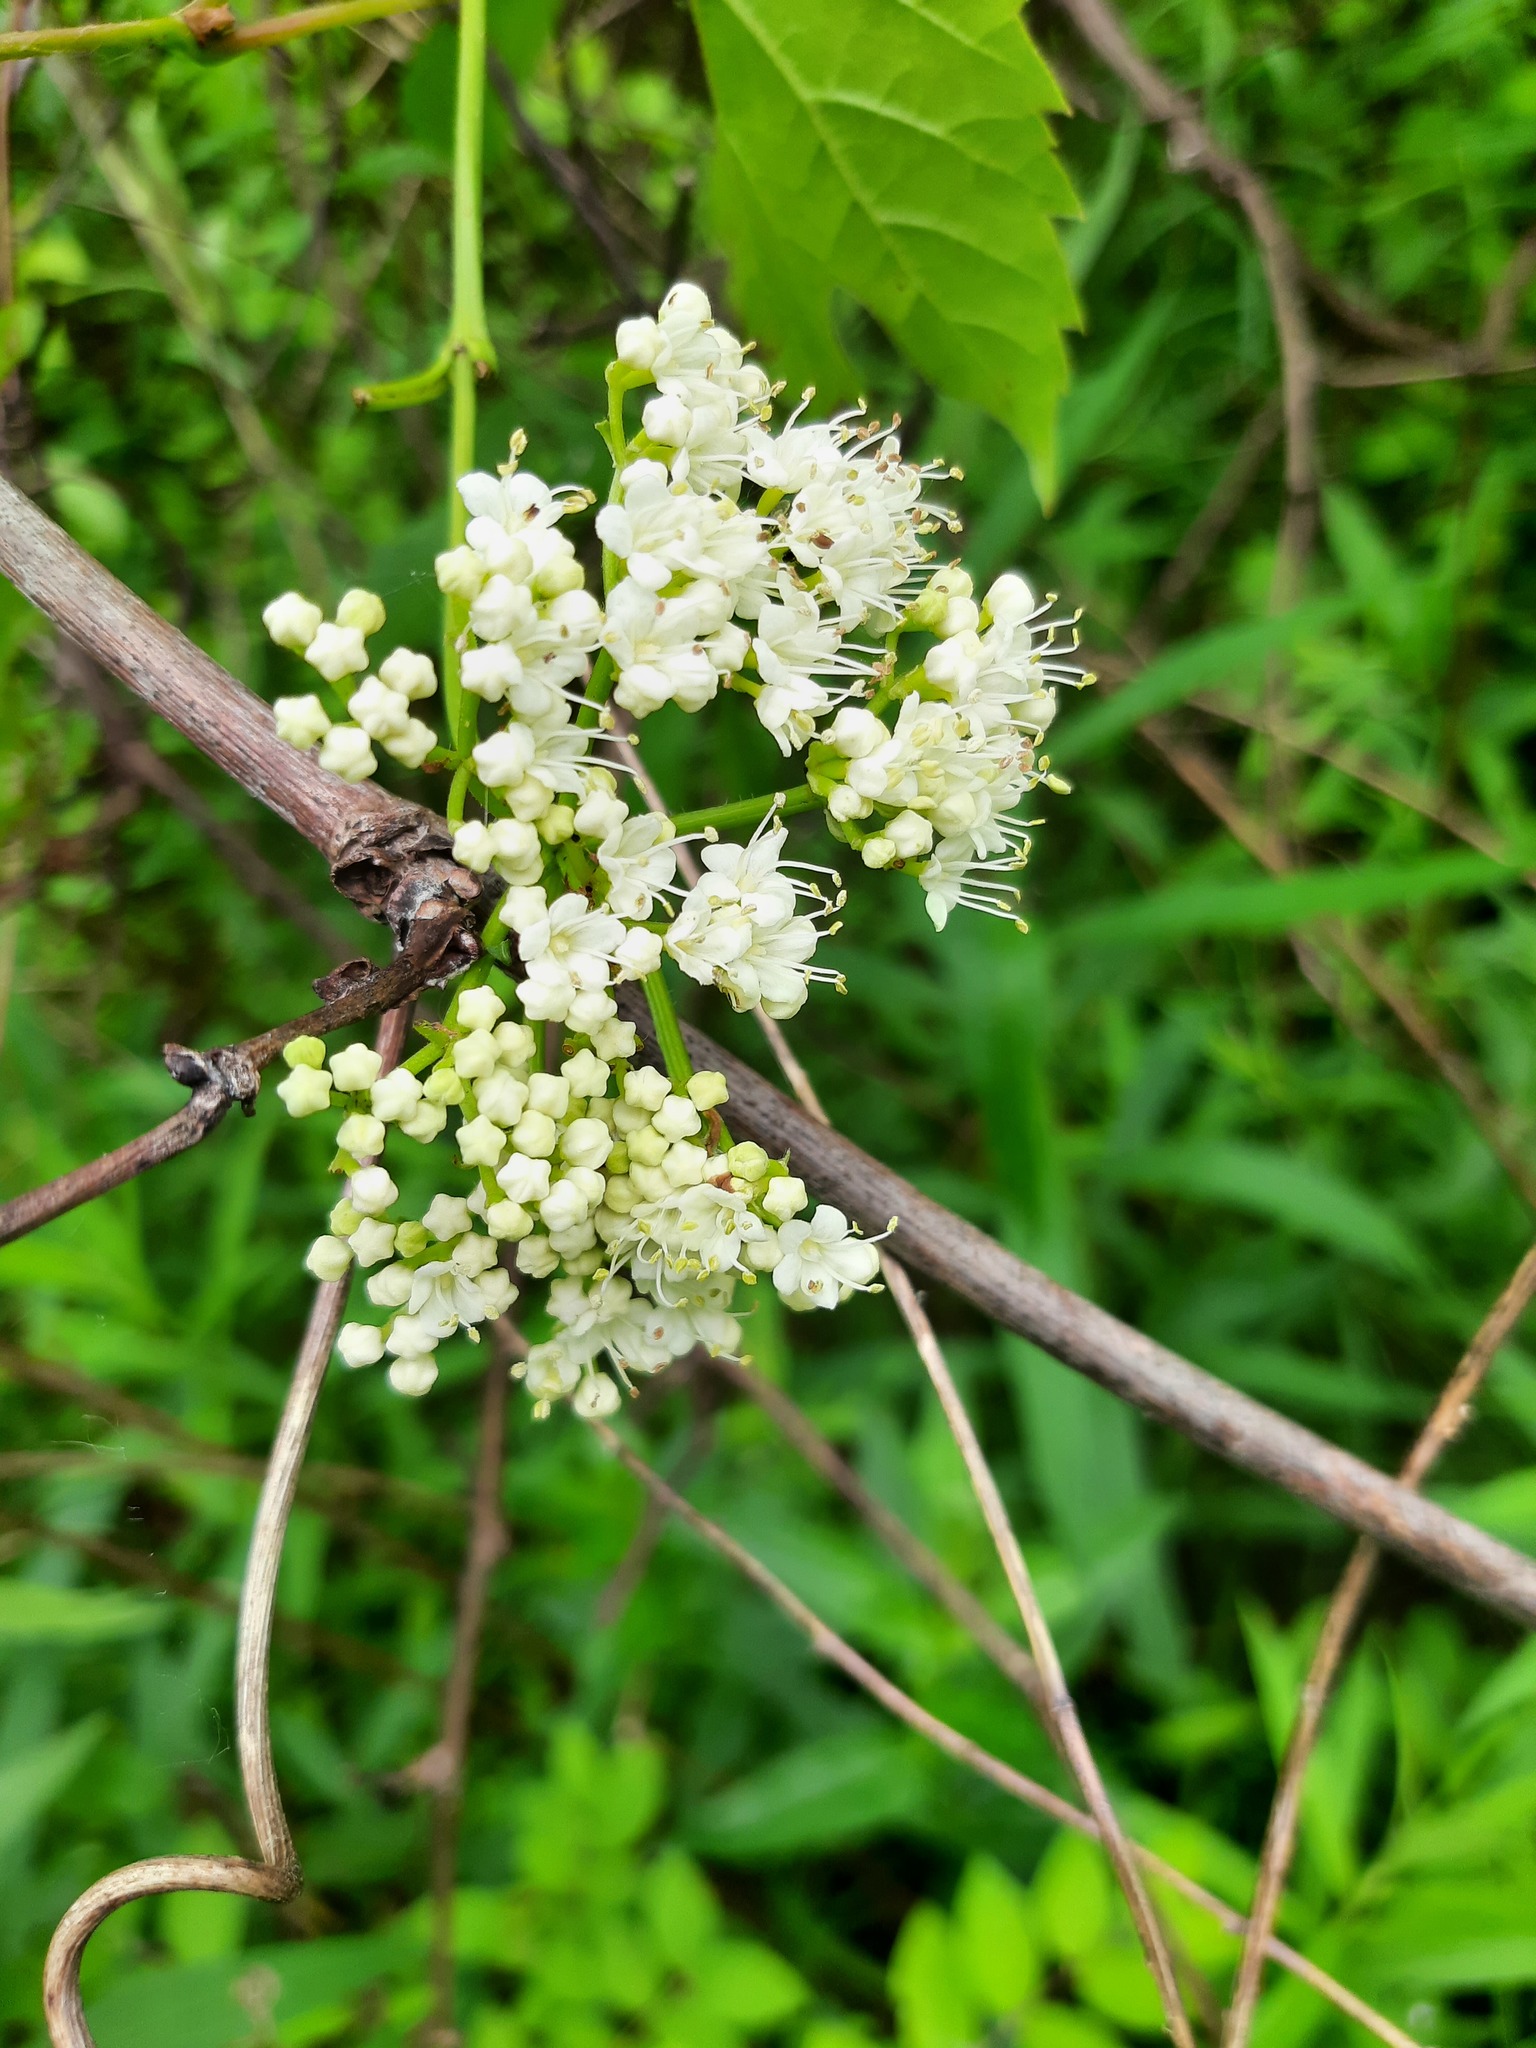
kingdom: Plantae
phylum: Tracheophyta
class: Magnoliopsida
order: Dipsacales
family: Viburnaceae
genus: Viburnum
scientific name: Viburnum recognitum
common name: Northern arrow-wood
